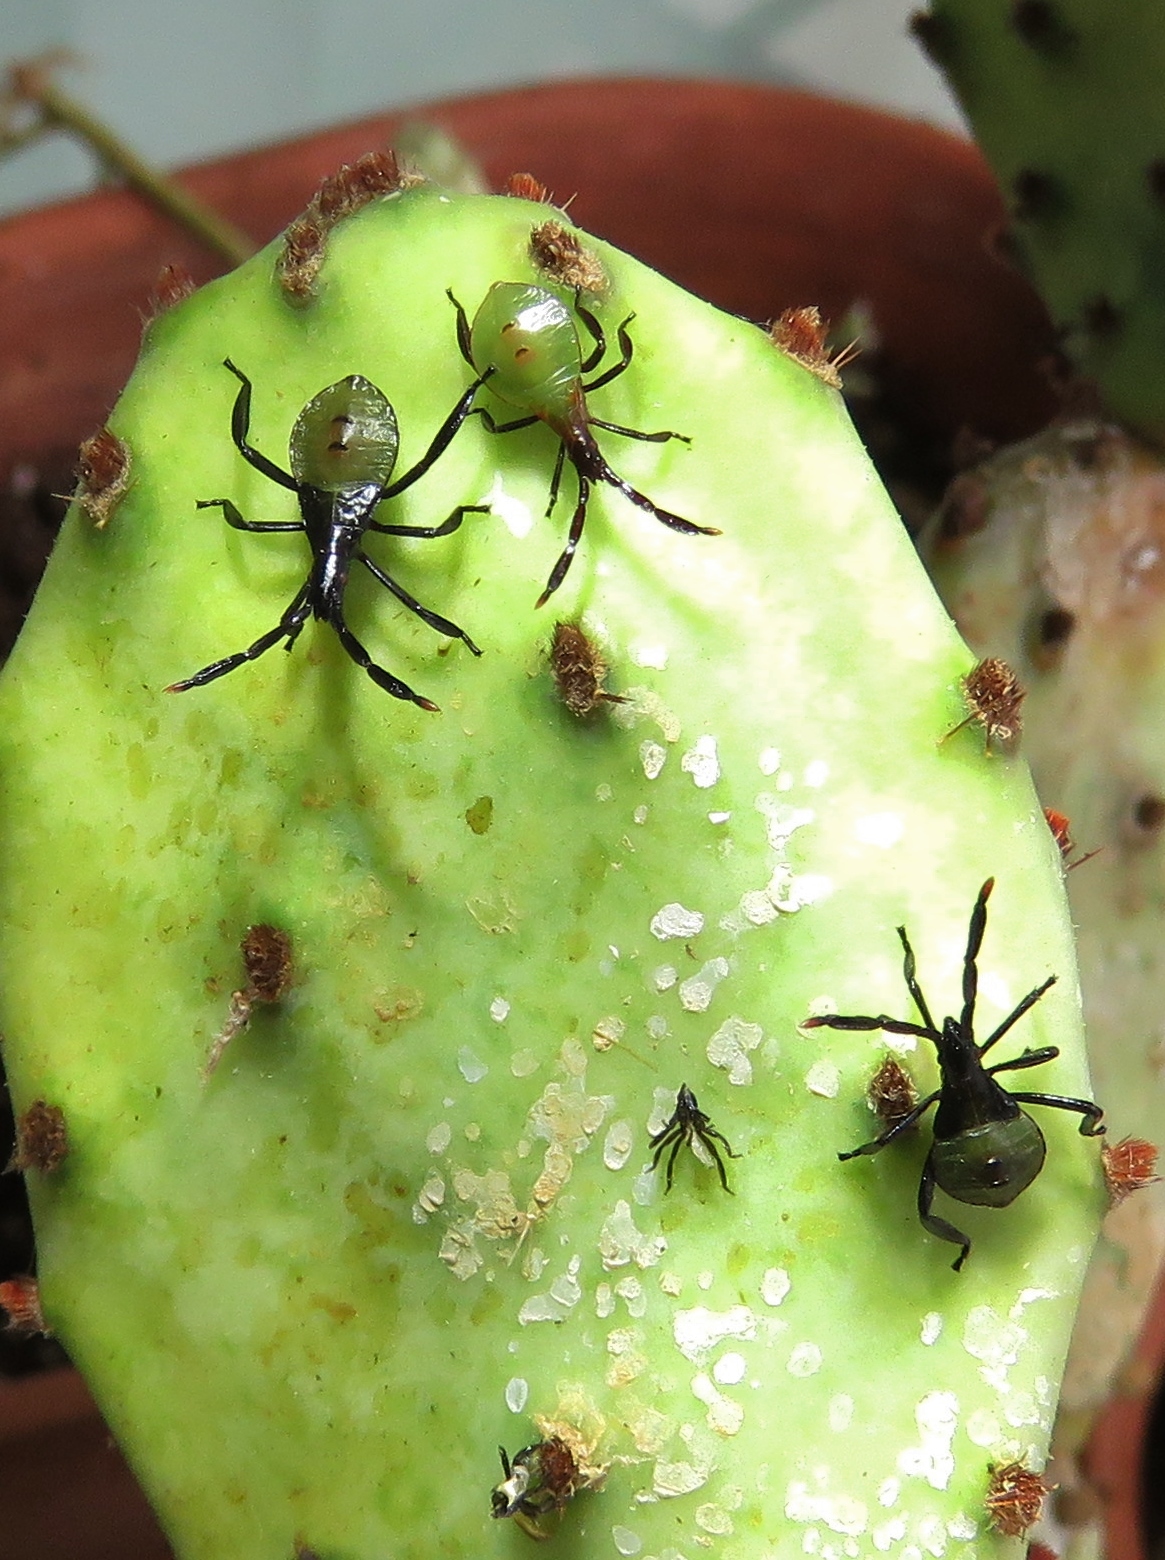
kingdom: Animalia
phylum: Arthropoda
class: Insecta
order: Hemiptera
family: Coreidae
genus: Chelinidea
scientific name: Chelinidea vittiger
